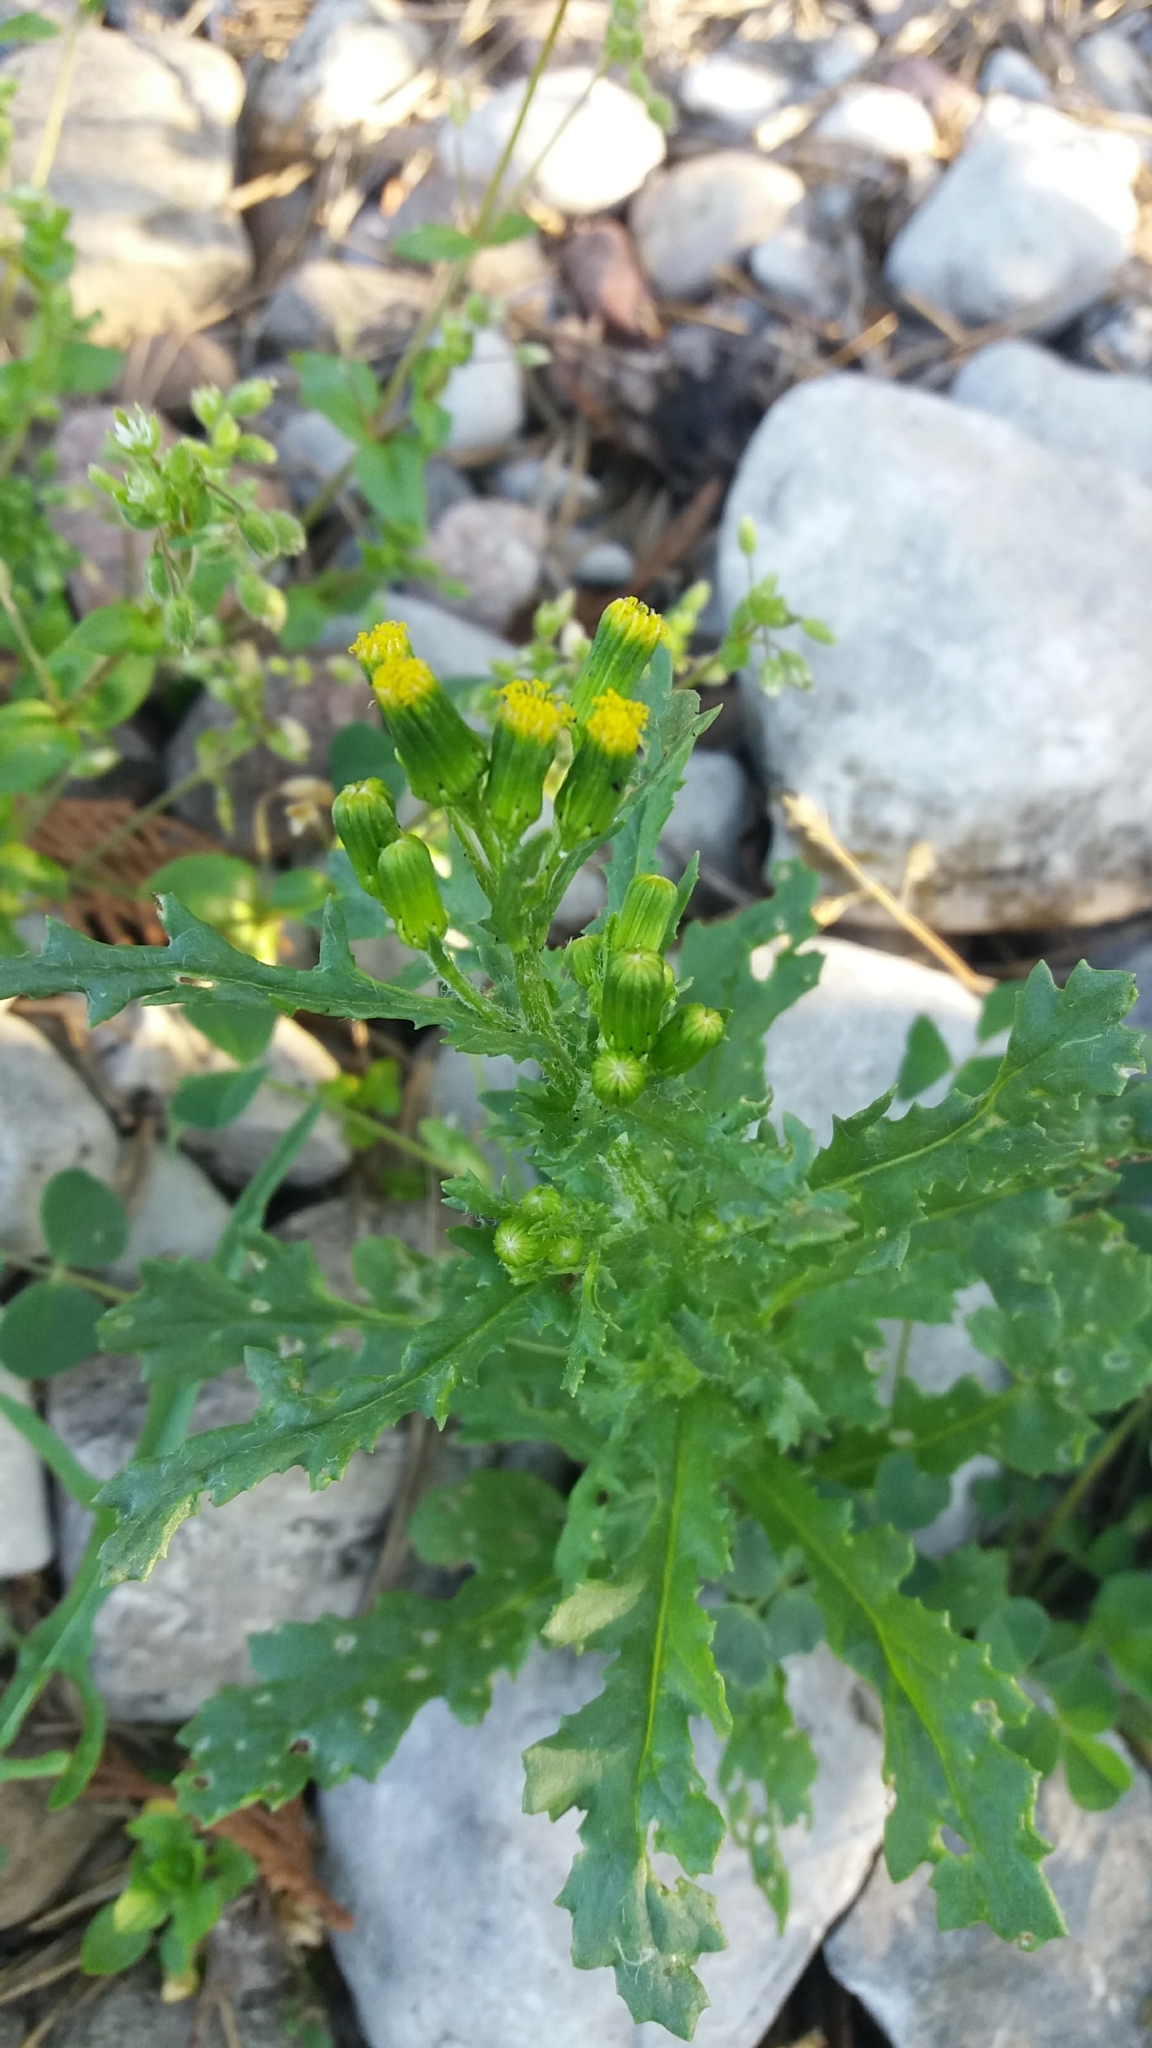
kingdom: Plantae
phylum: Tracheophyta
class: Magnoliopsida
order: Asterales
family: Asteraceae
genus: Senecio
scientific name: Senecio vulgaris
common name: Old-man-in-the-spring
